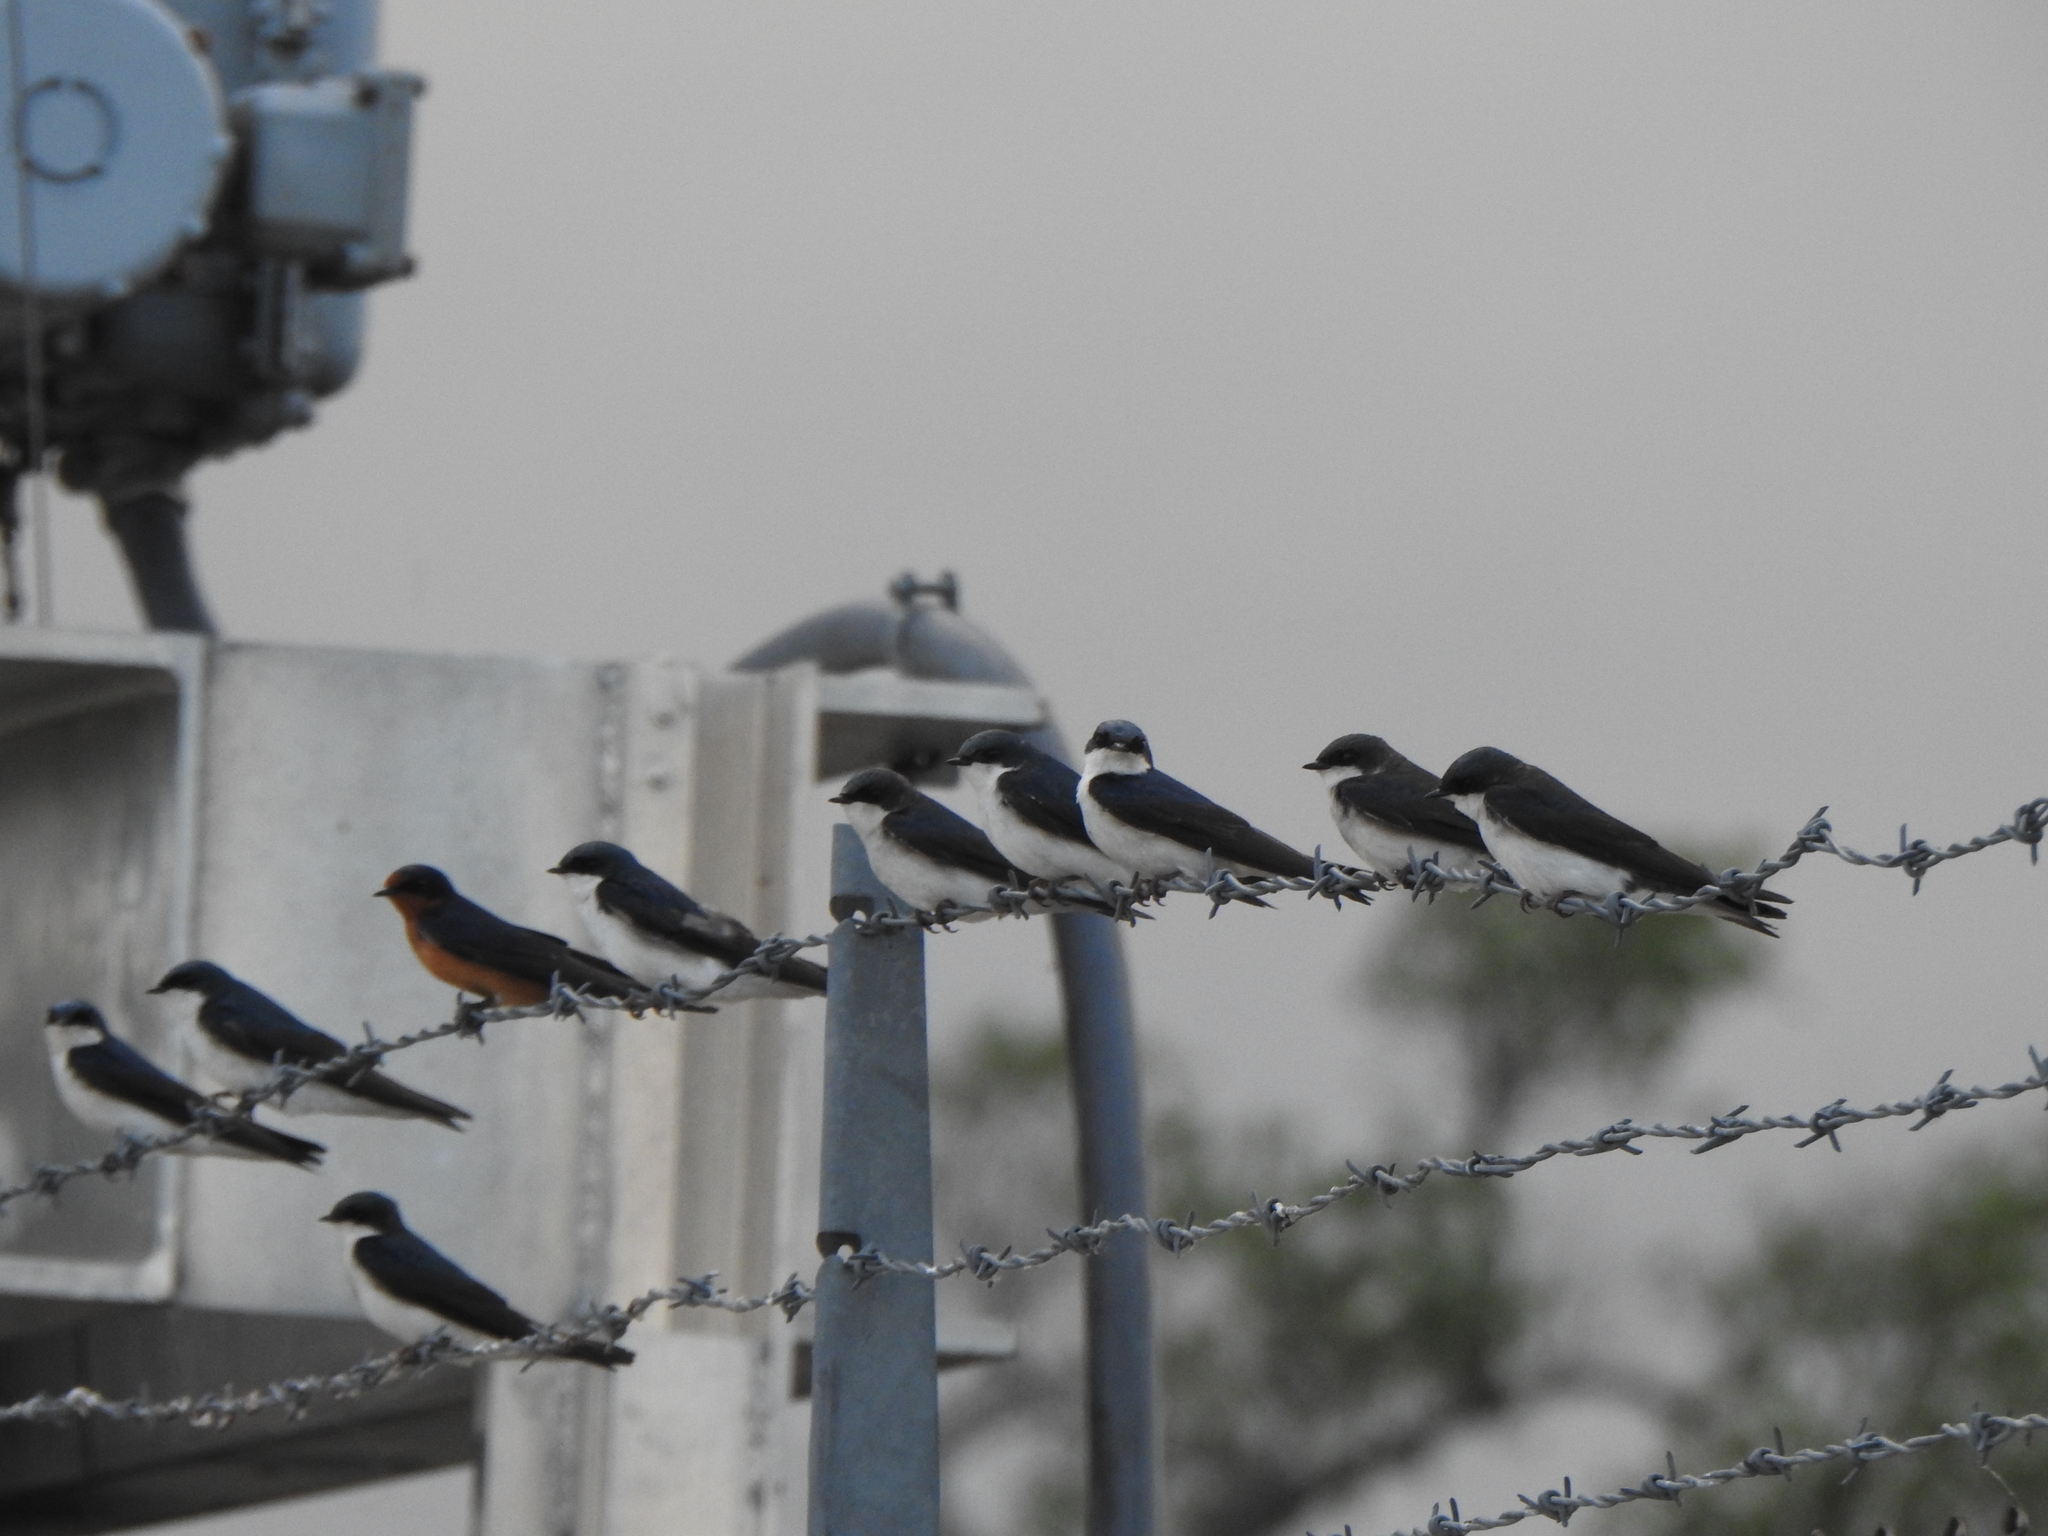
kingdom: Animalia
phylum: Chordata
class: Aves
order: Passeriformes
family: Hirundinidae
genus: Tachycineta
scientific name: Tachycineta bicolor
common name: Tree swallow
